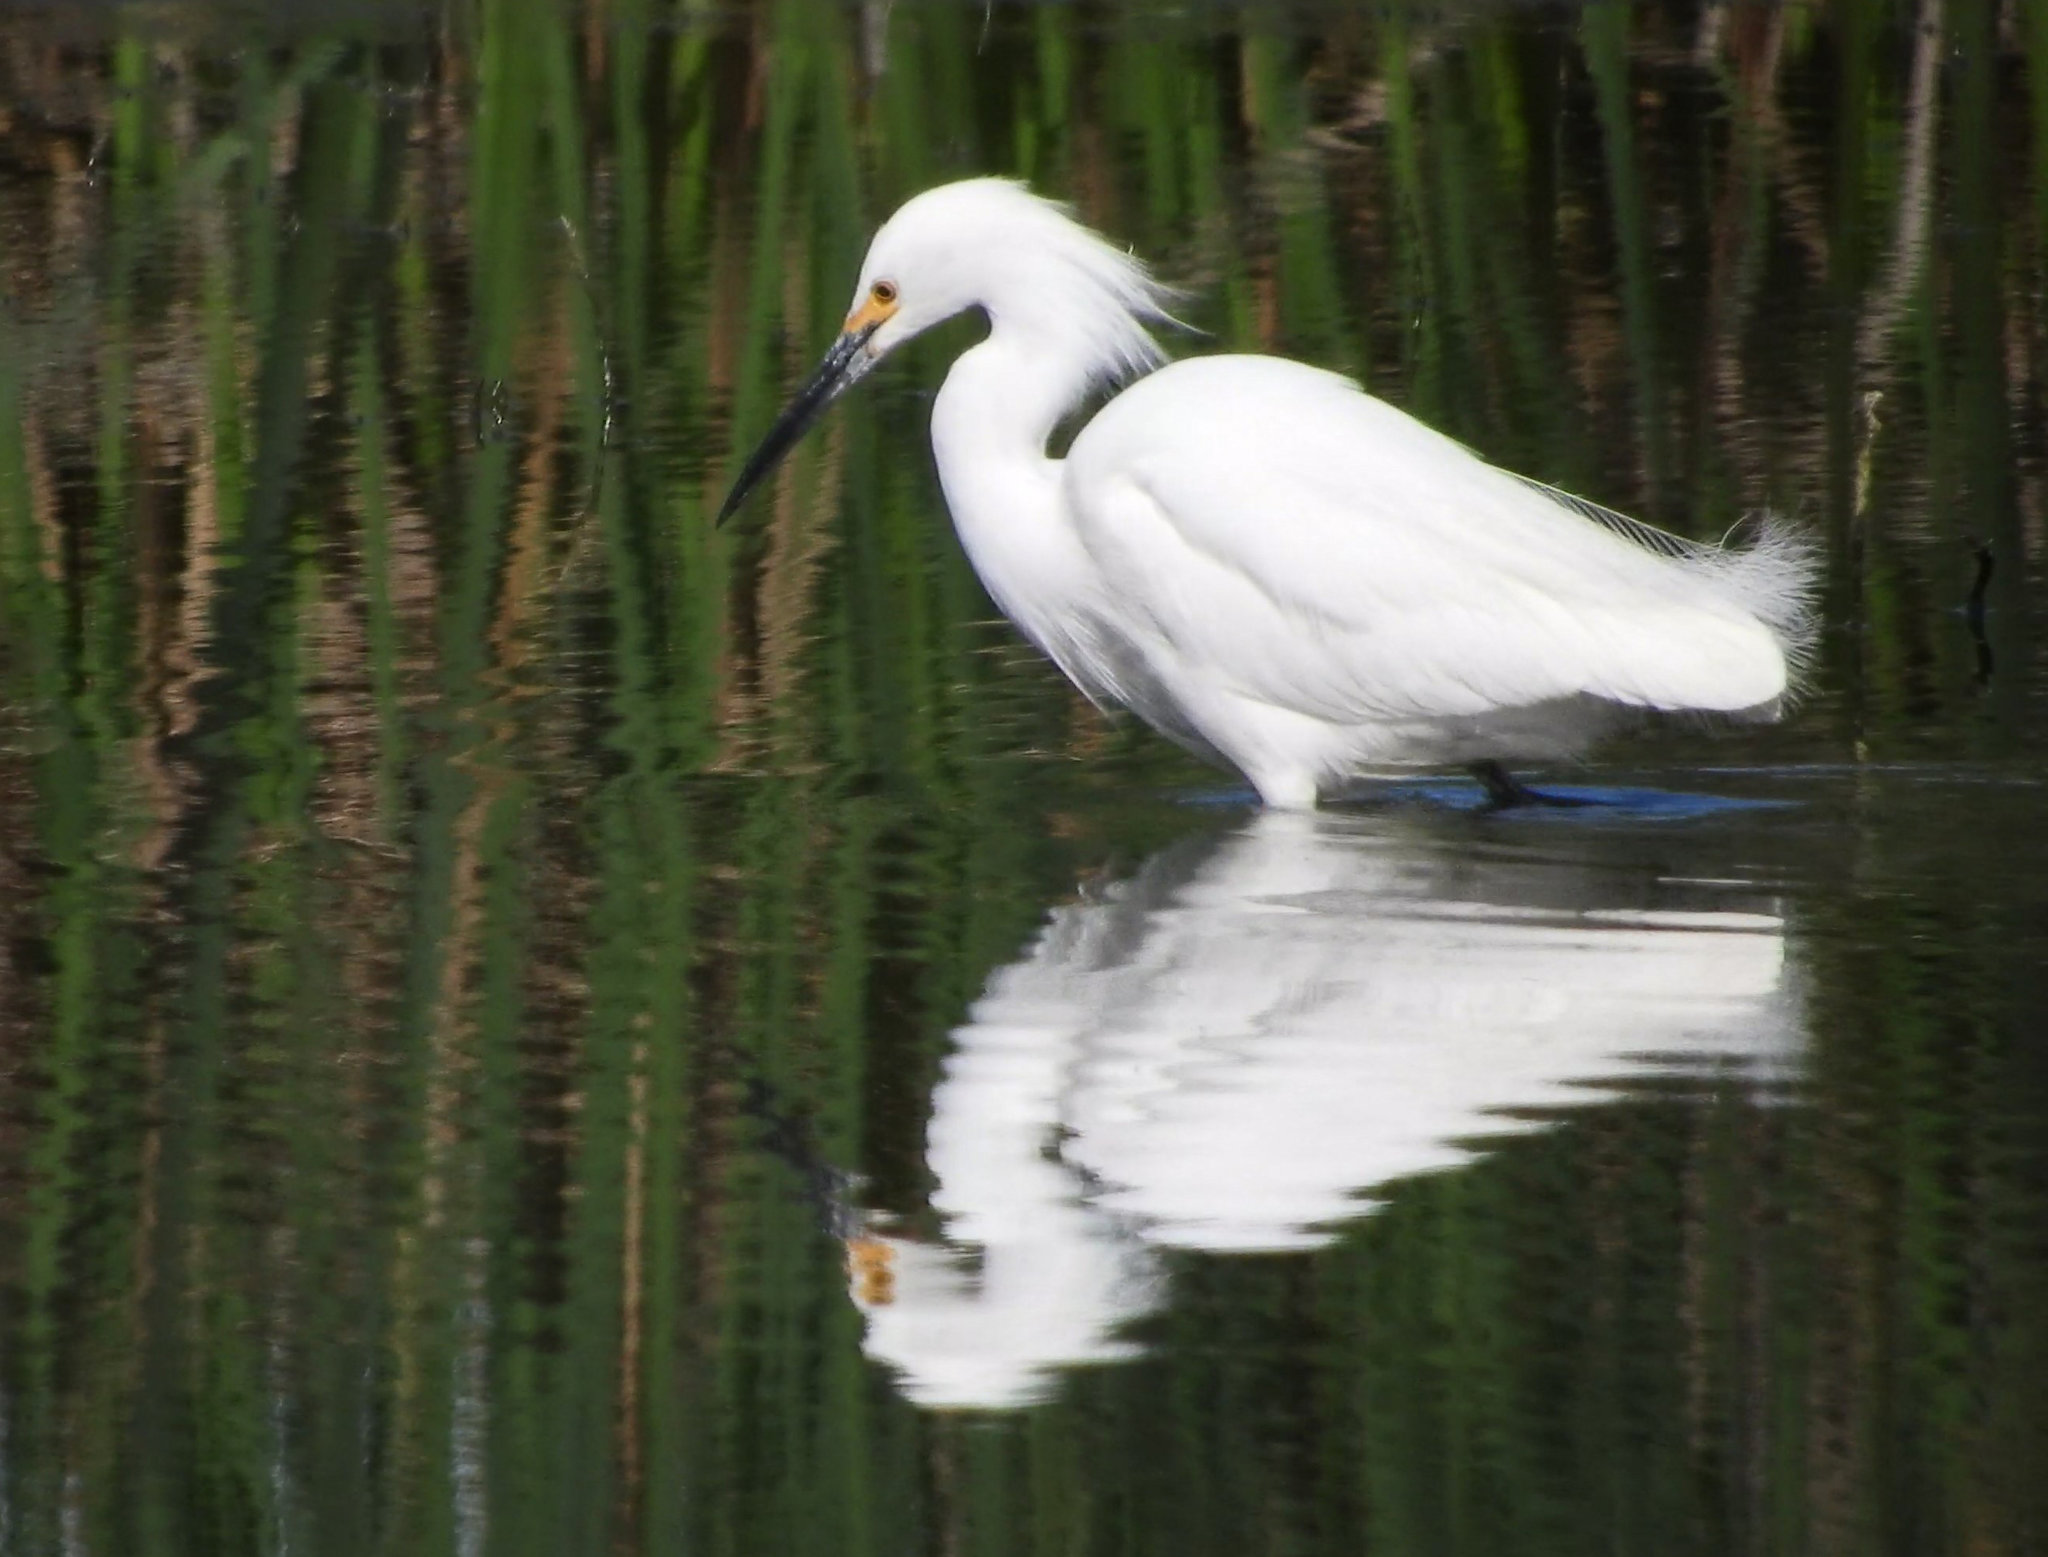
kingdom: Animalia
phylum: Chordata
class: Aves
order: Pelecaniformes
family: Ardeidae
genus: Egretta
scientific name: Egretta thula
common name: Snowy egret
